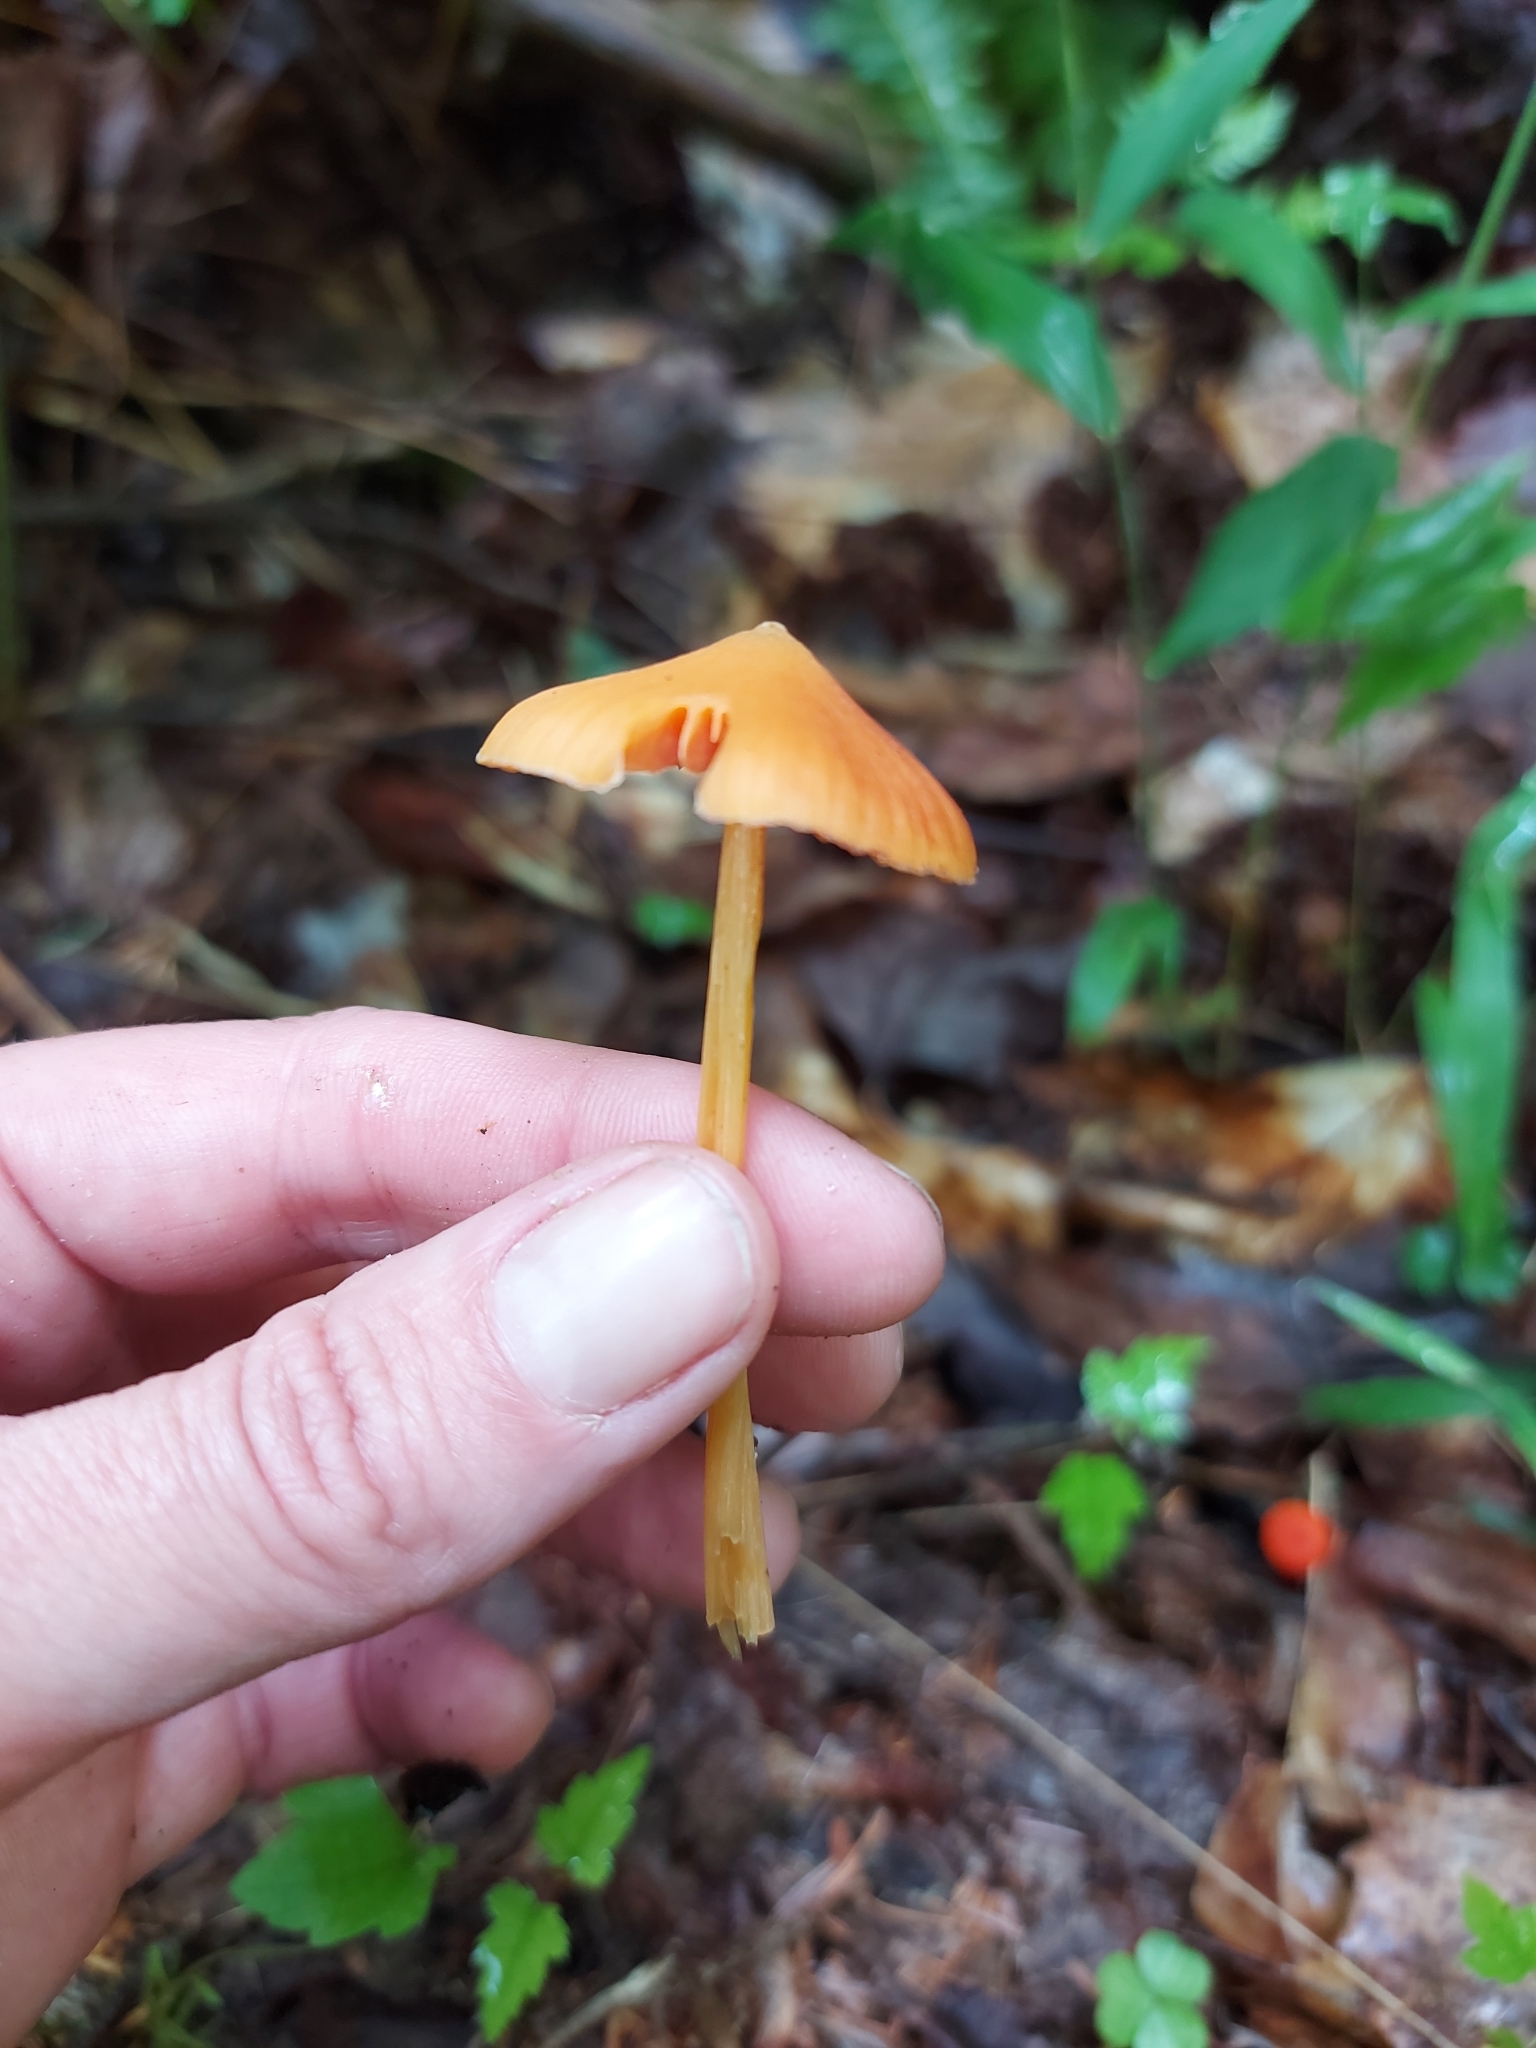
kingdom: Fungi
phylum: Basidiomycota
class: Agaricomycetes
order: Agaricales
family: Entolomataceae
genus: Entoloma
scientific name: Entoloma quadratum
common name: Salmon pinkgill
